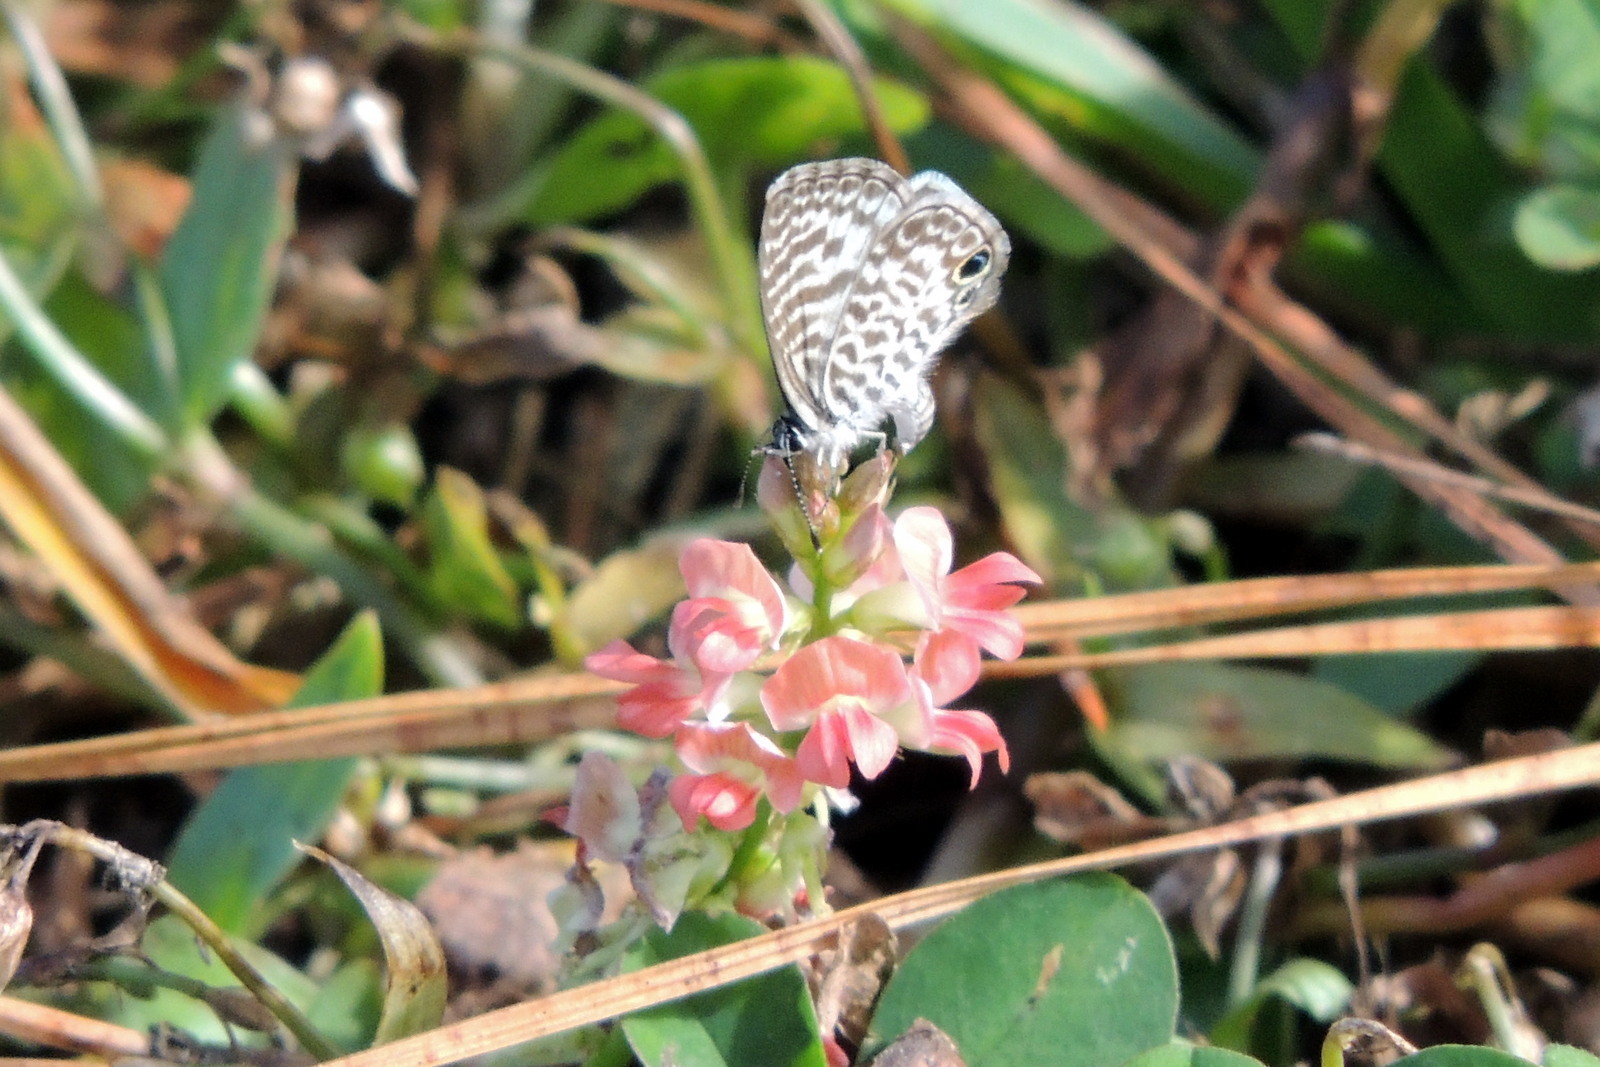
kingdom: Plantae
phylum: Tracheophyta
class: Magnoliopsida
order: Fabales
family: Fabaceae
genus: Indigofera
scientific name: Indigofera spicata
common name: Creeping indigo
